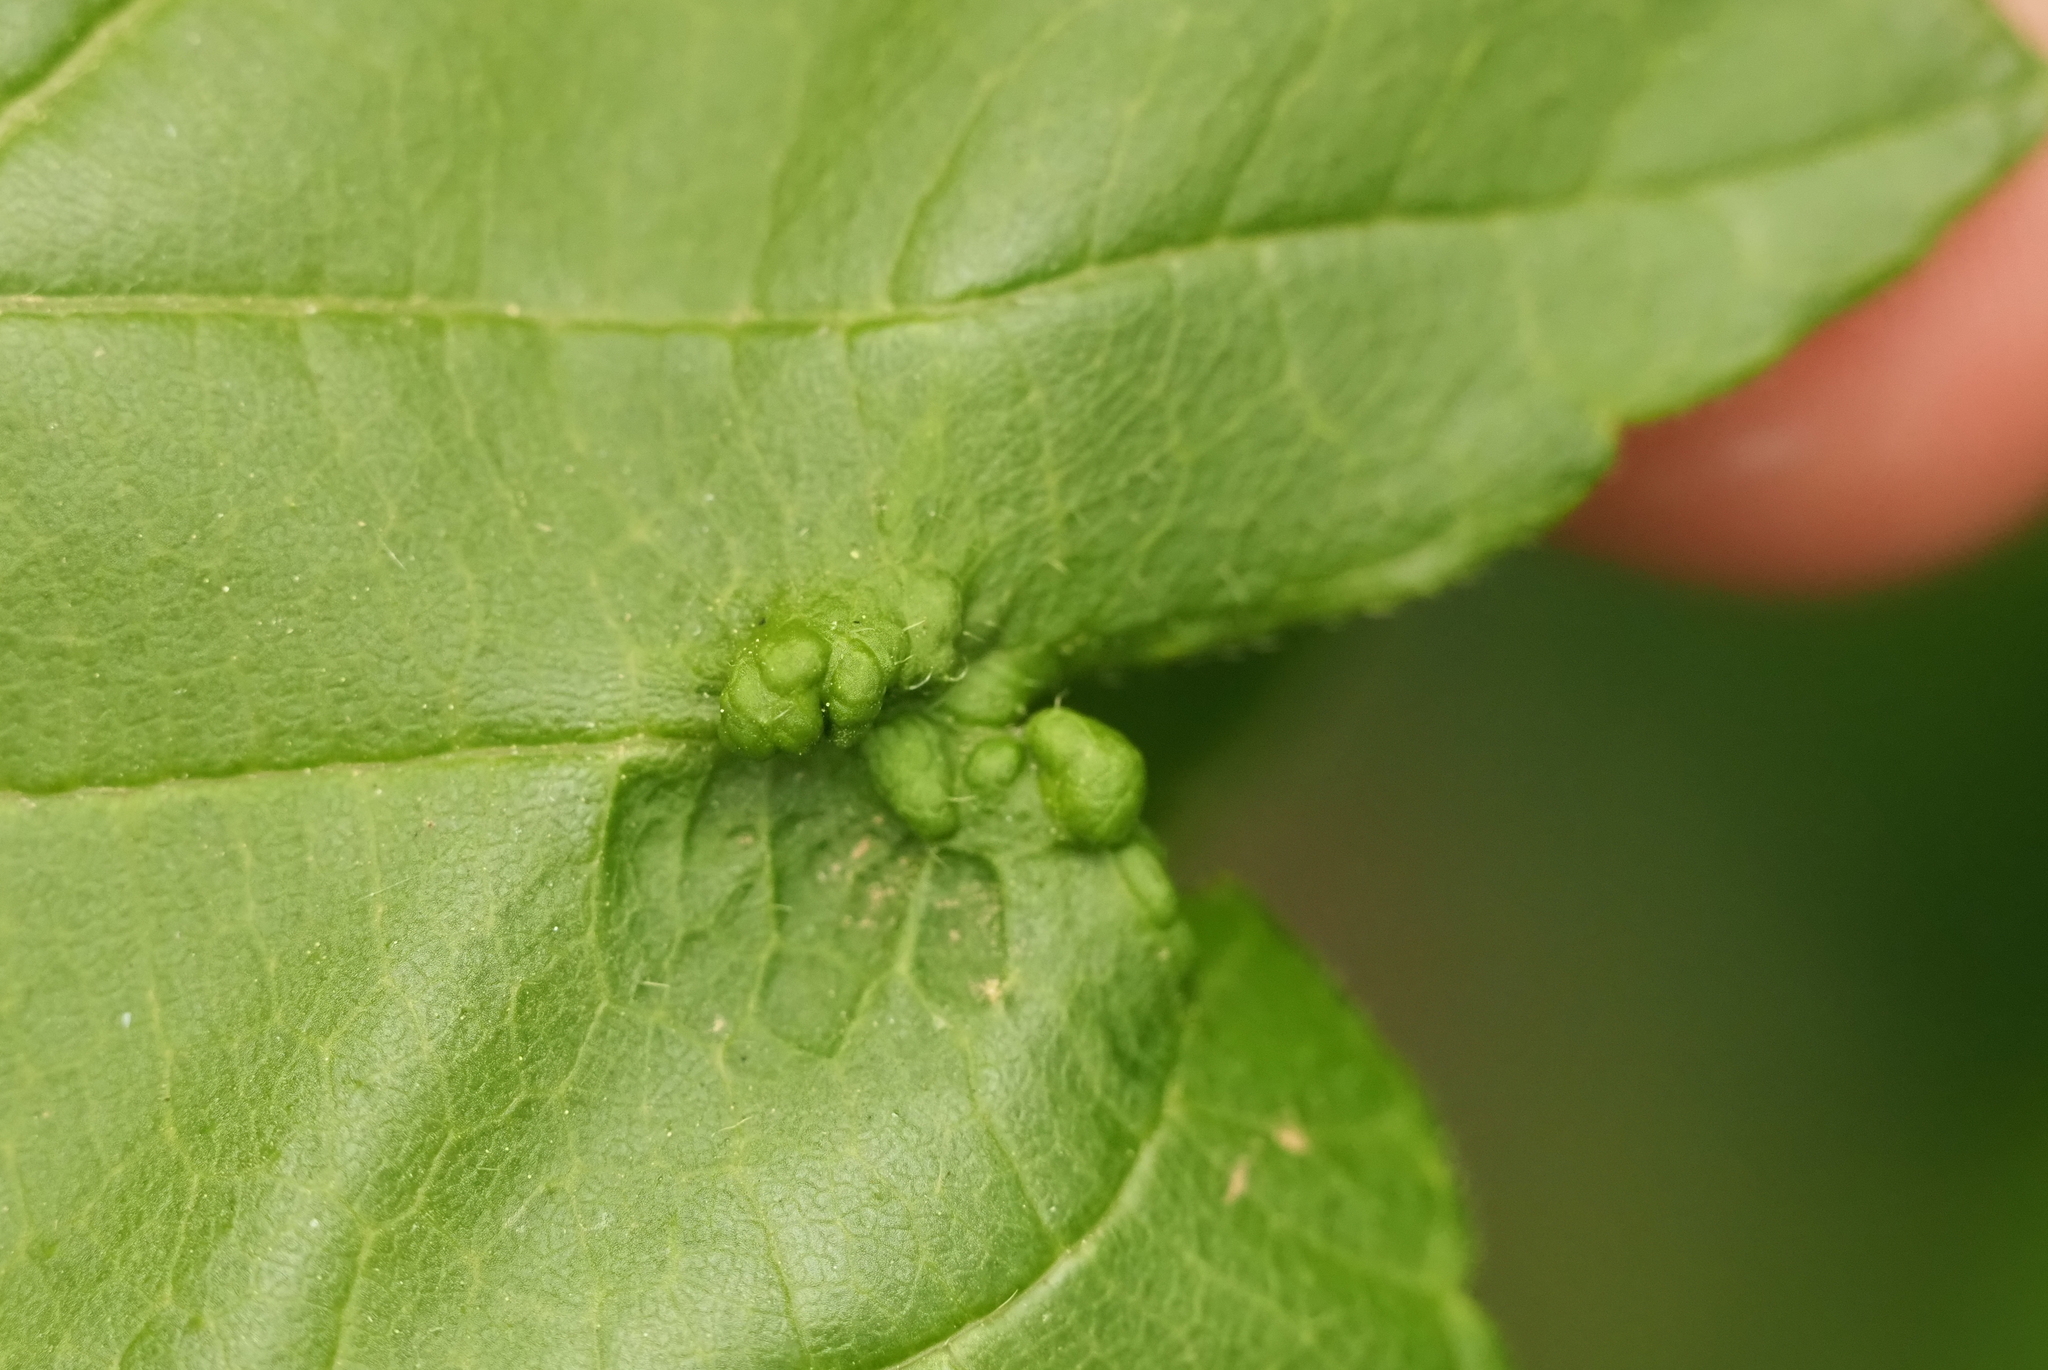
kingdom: Animalia
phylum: Arthropoda
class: Arachnida
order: Trombidiformes
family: Eriophyidae
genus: Aceria
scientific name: Aceria
